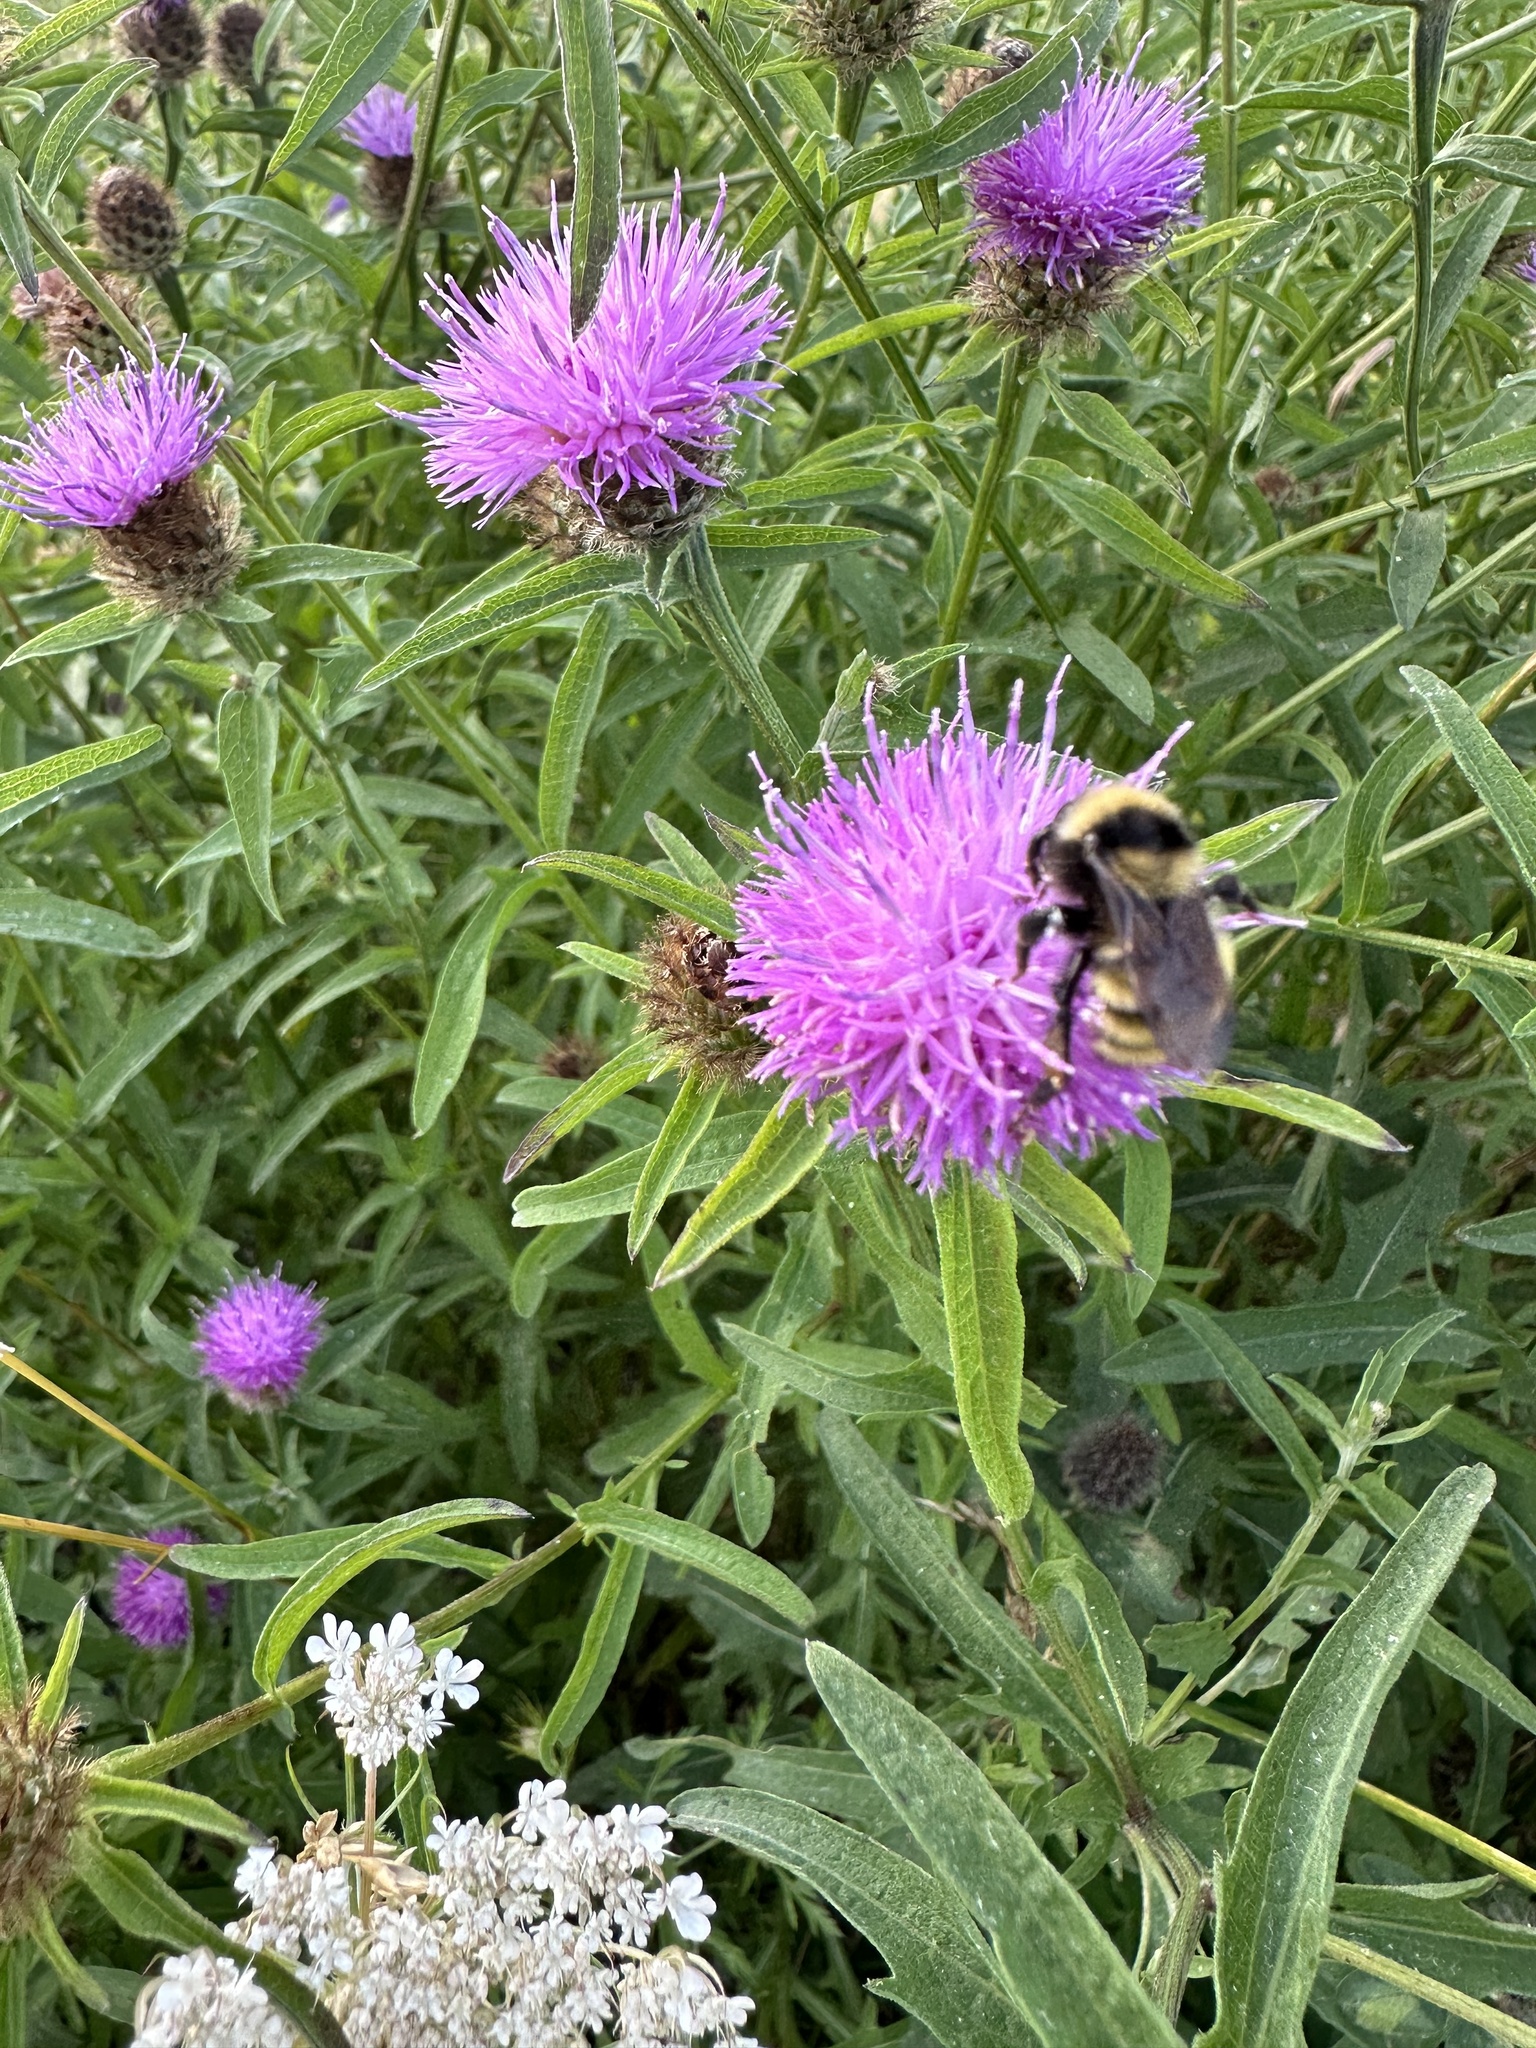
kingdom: Animalia
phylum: Arthropoda
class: Insecta
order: Hymenoptera
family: Apidae
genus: Bombus
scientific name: Bombus borealis
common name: Northern amber bumble bee
